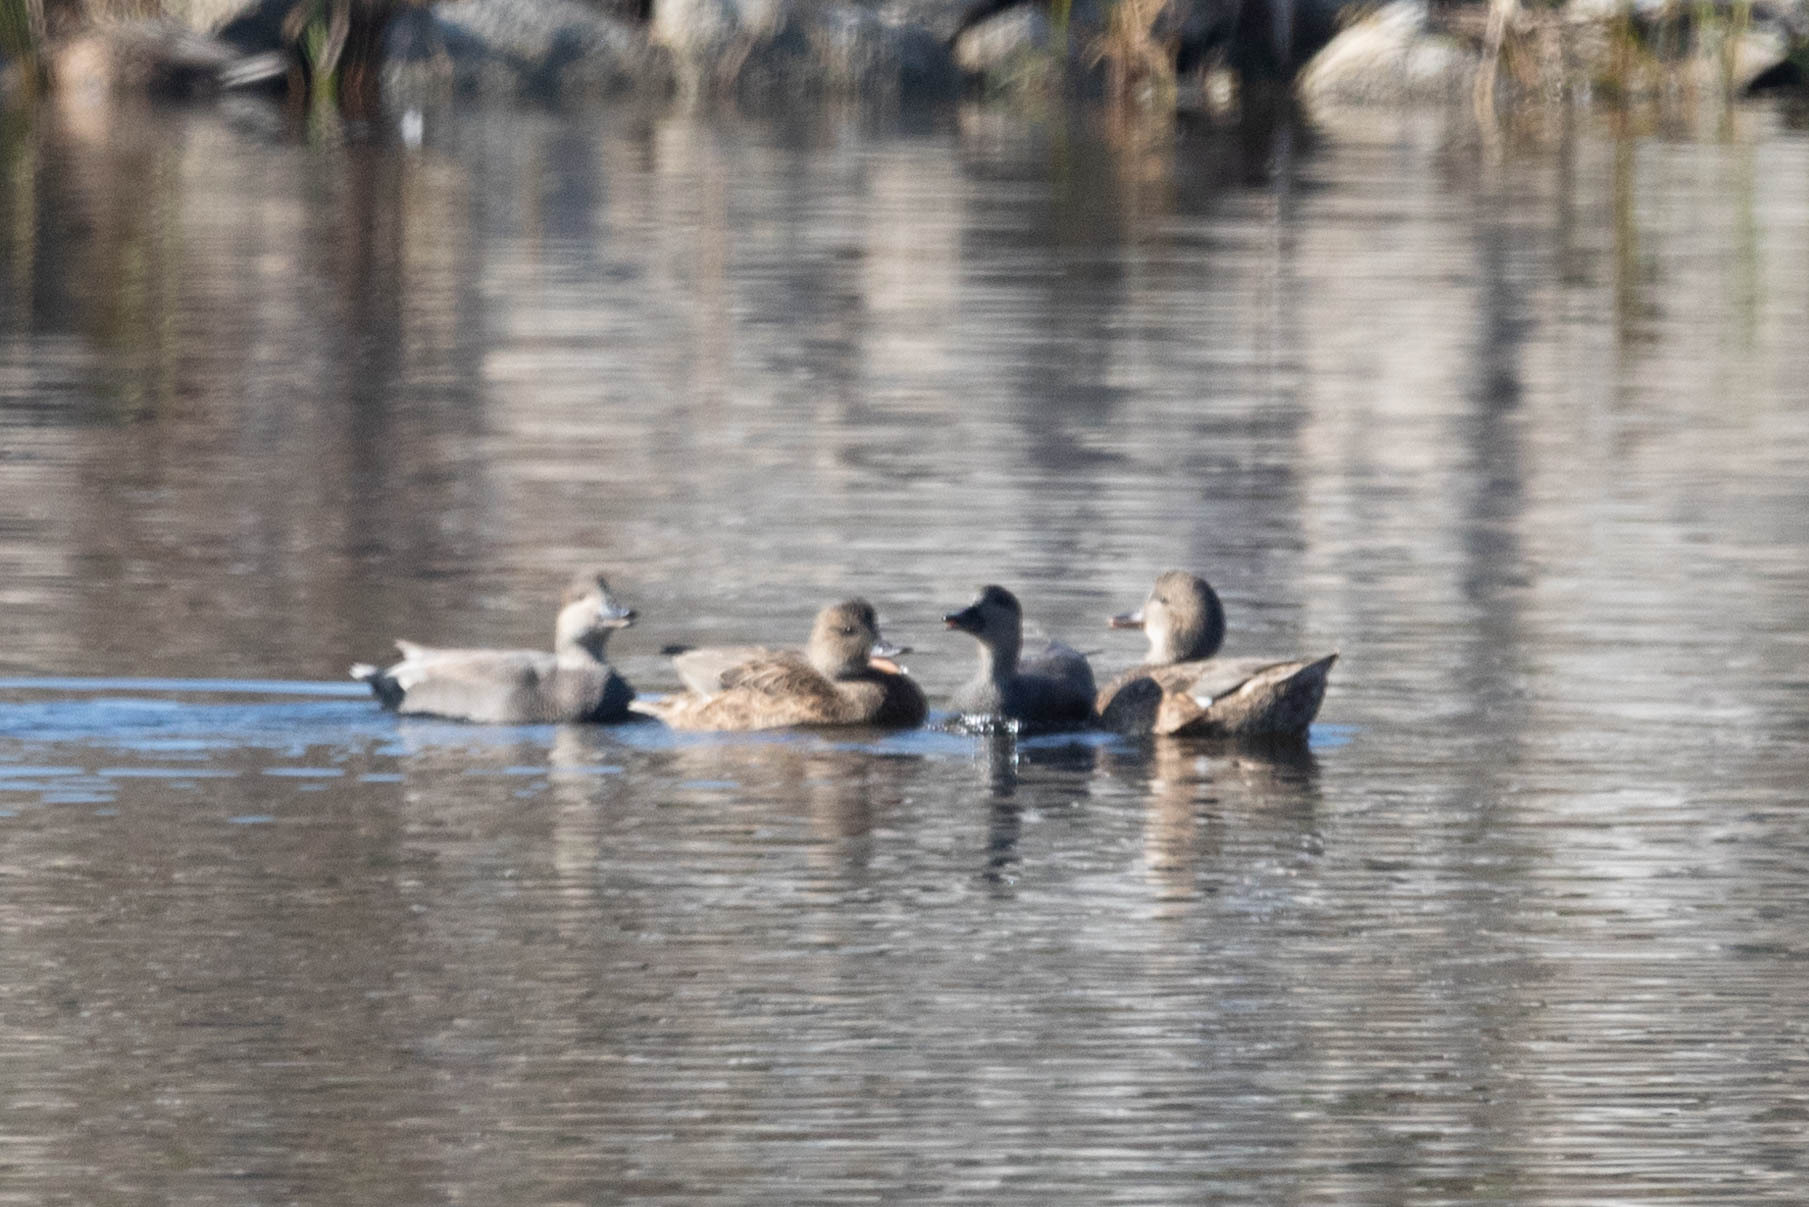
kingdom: Animalia
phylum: Chordata
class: Aves
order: Anseriformes
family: Anatidae
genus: Mareca
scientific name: Mareca strepera
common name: Gadwall
